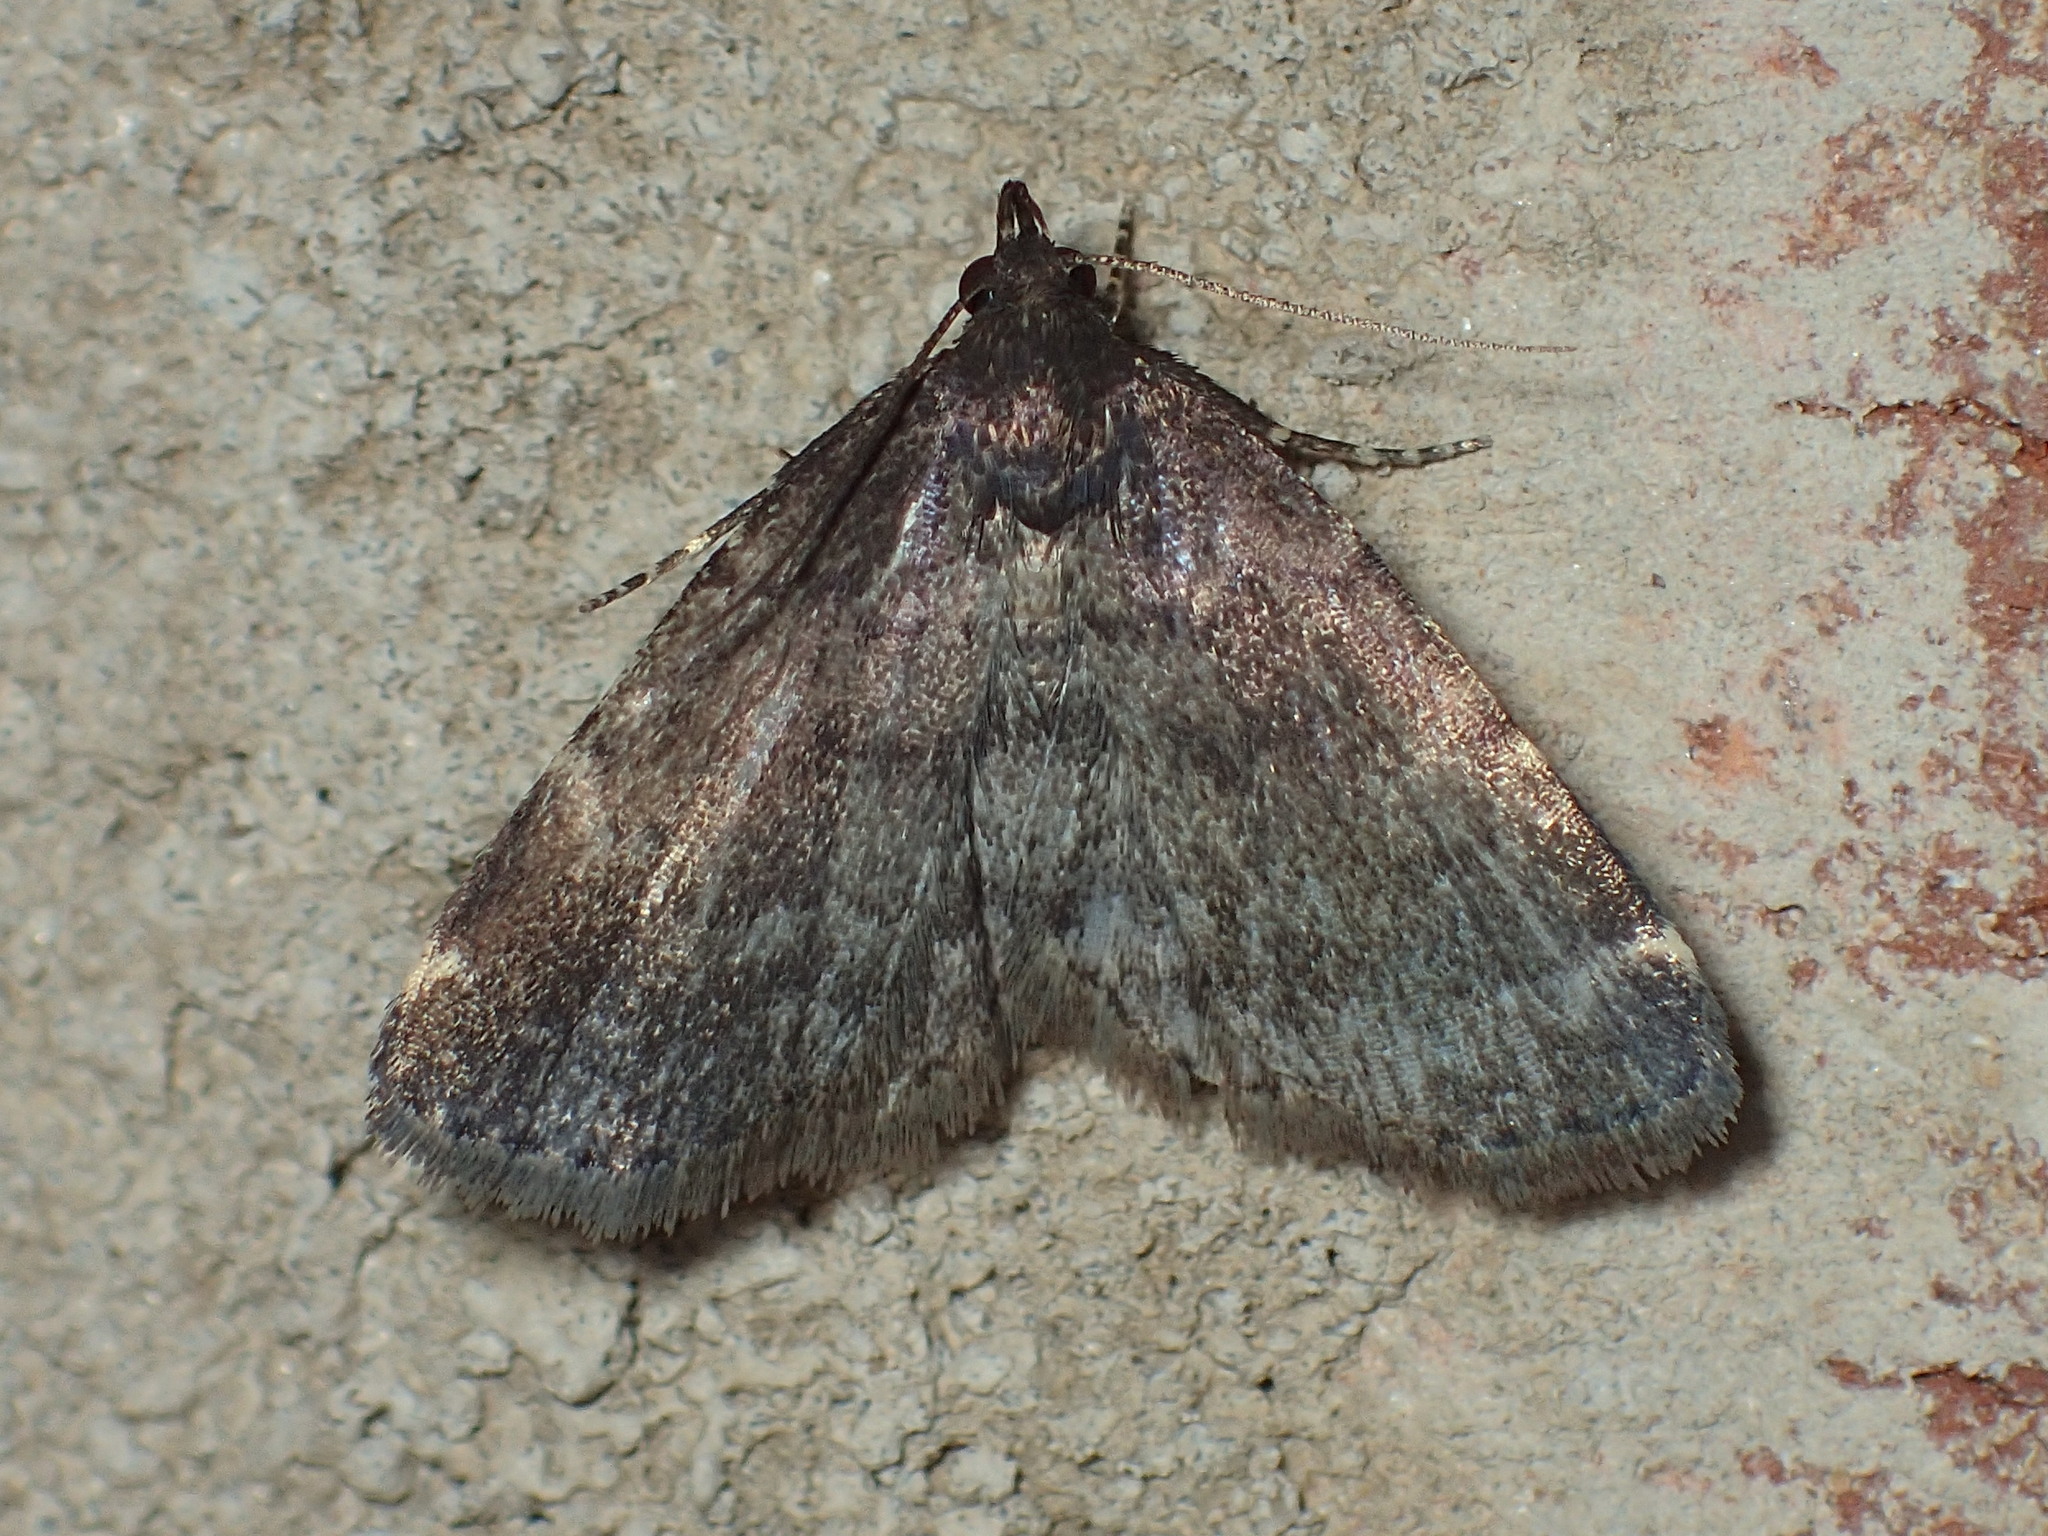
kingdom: Animalia
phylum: Arthropoda
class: Insecta
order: Lepidoptera
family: Erebidae
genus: Idia
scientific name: Idia forbesii
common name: Forbes' idia moth
